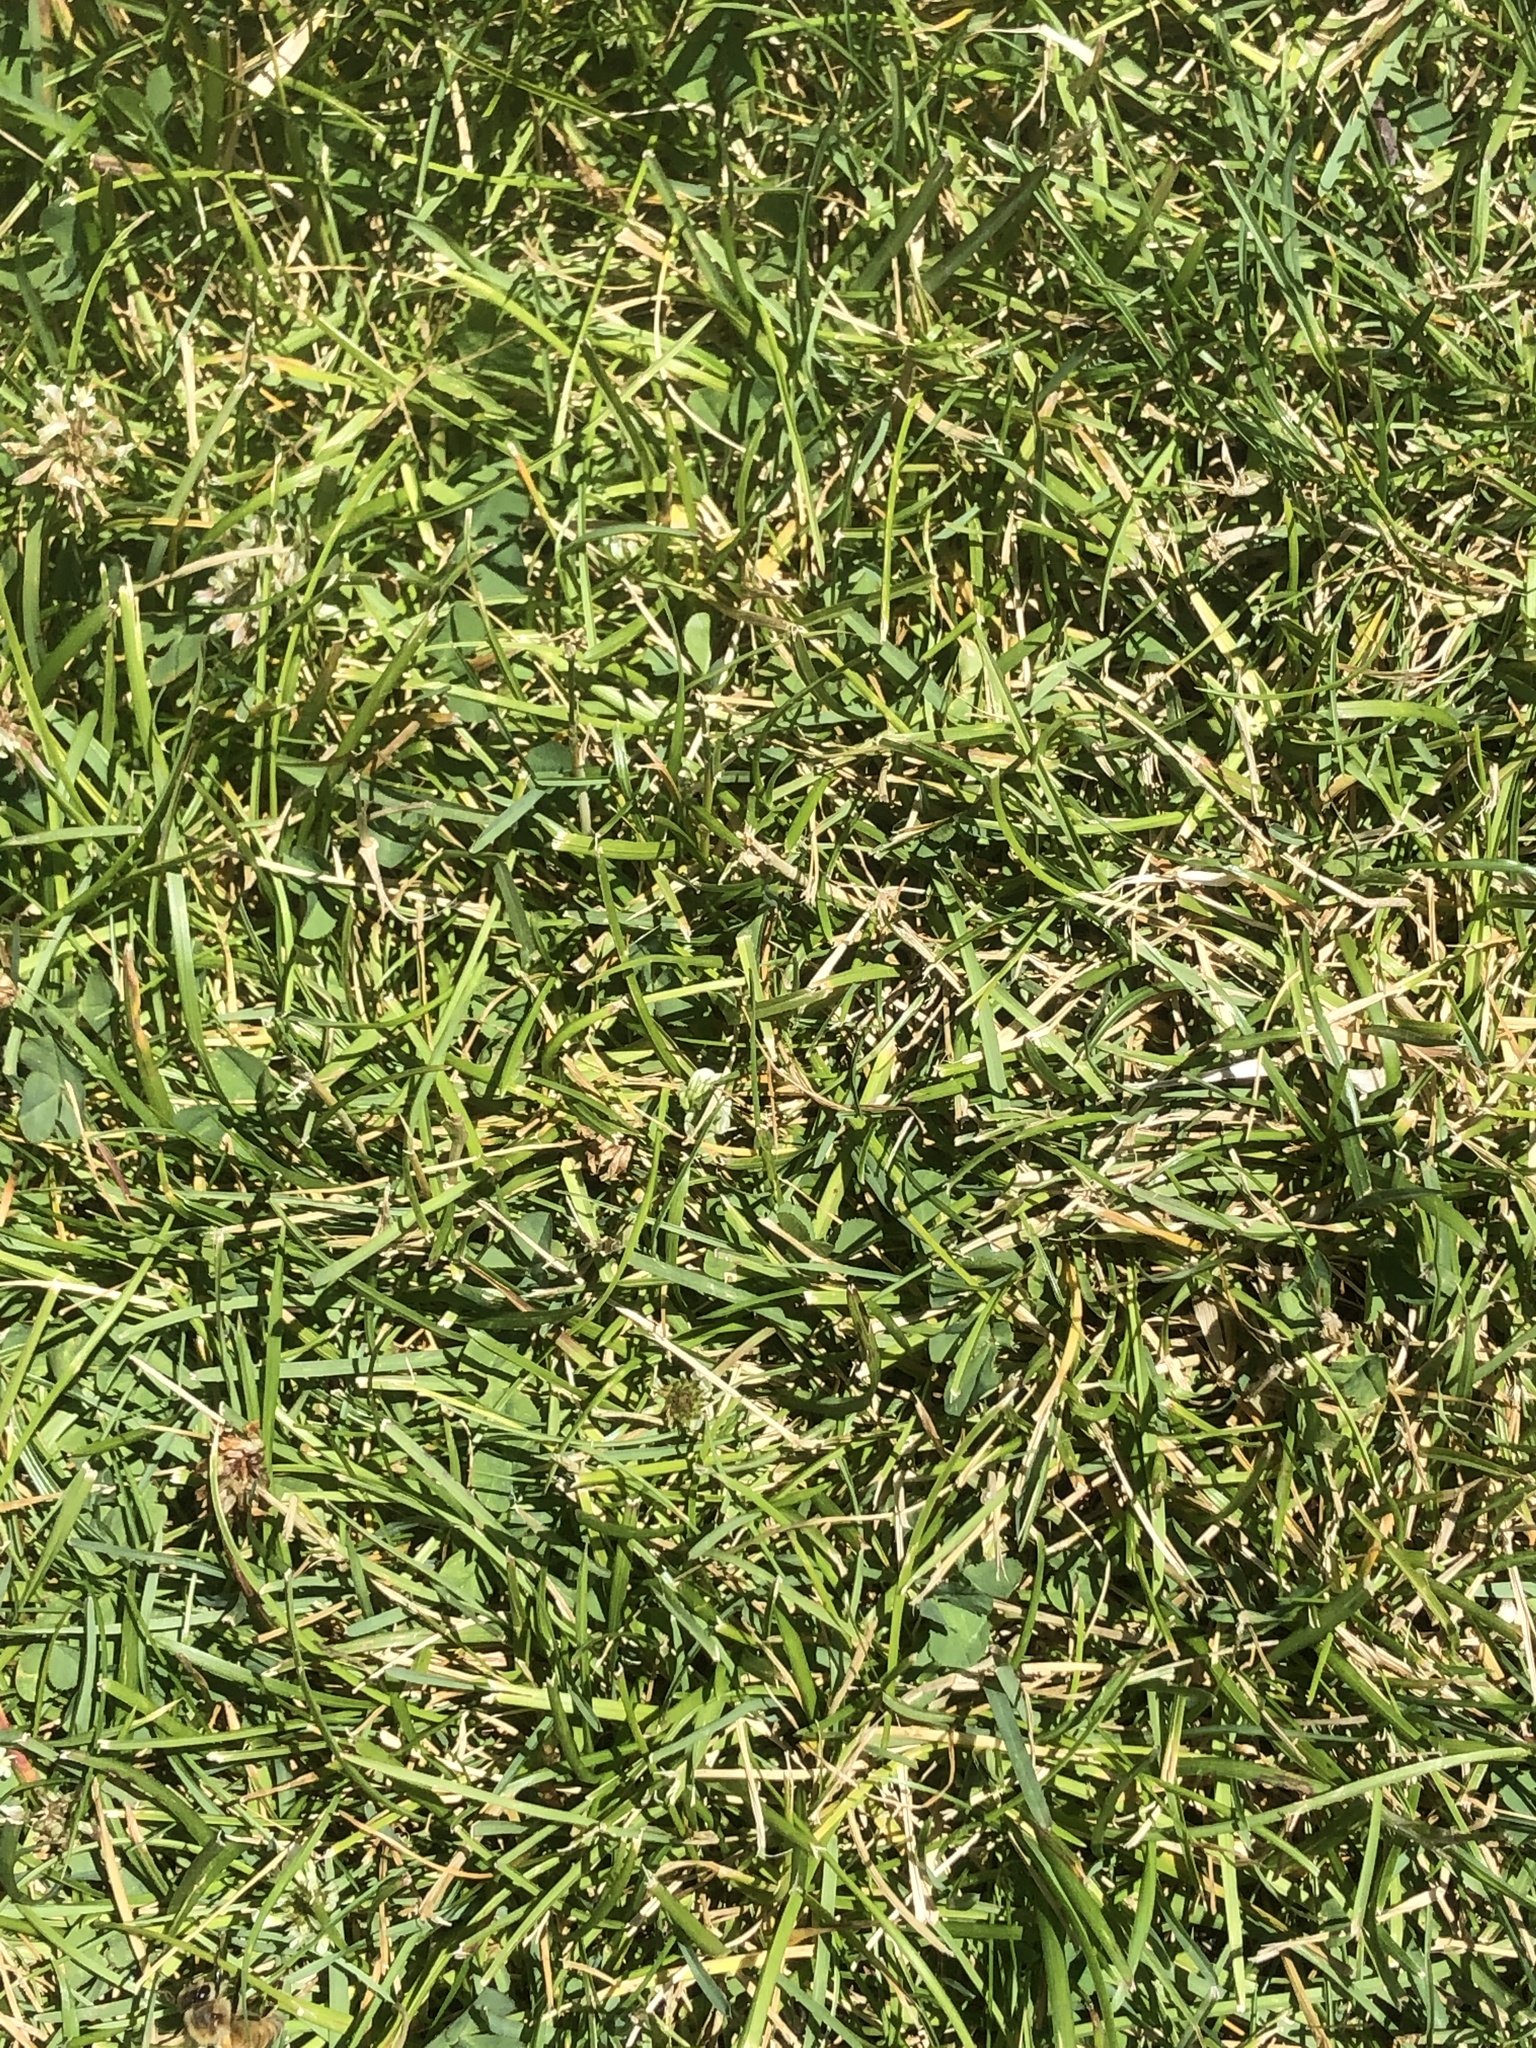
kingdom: Animalia
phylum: Arthropoda
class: Insecta
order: Hymenoptera
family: Apidae
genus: Apis
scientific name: Apis mellifera
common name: Honey bee
